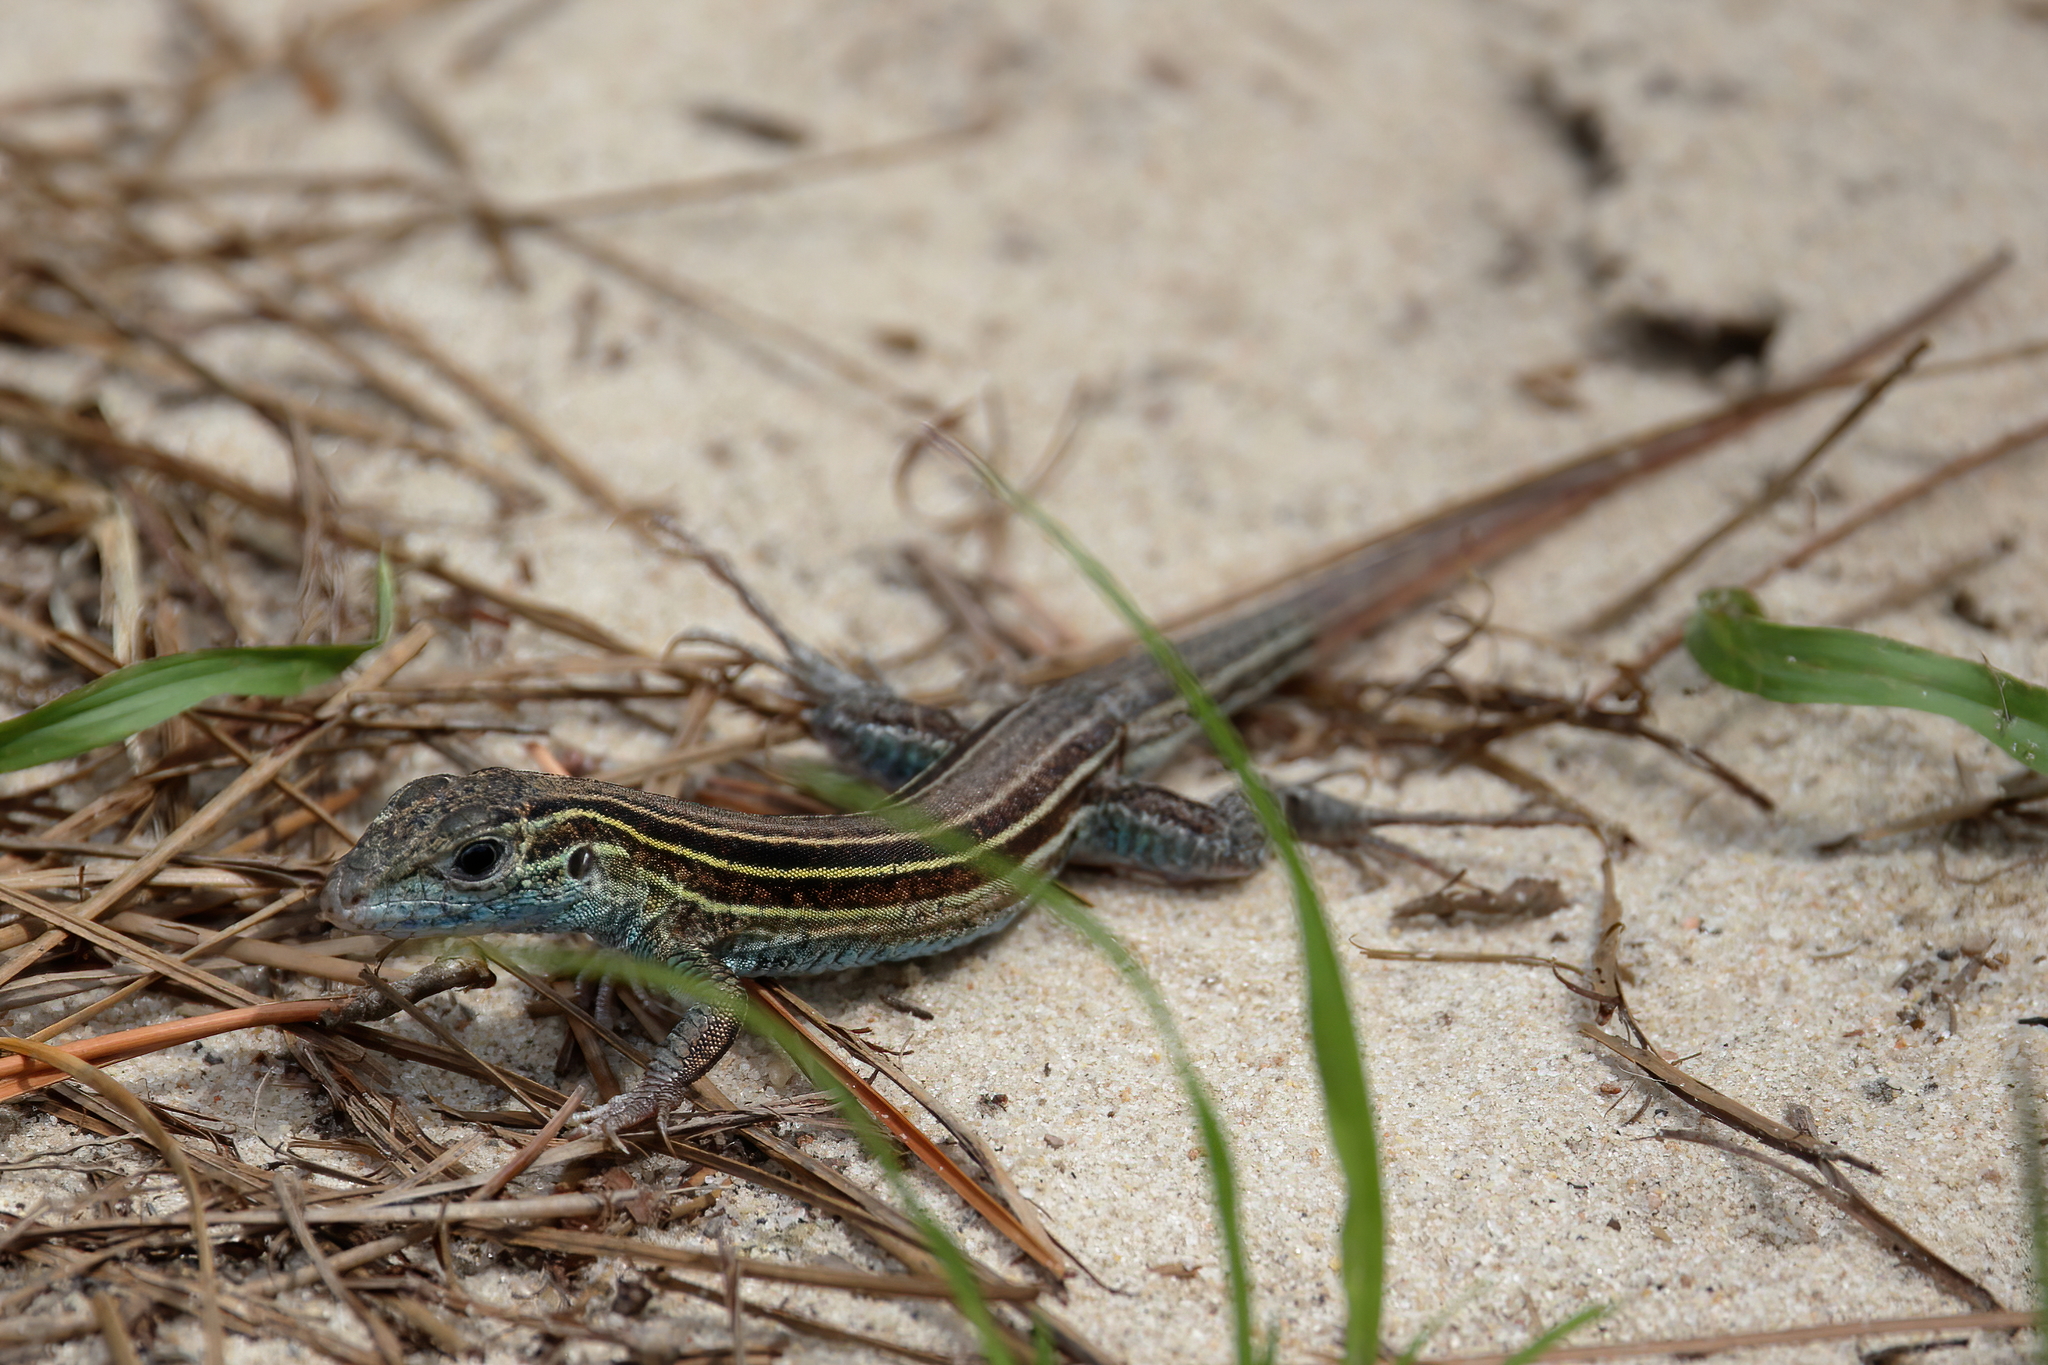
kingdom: Animalia
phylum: Chordata
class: Squamata
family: Teiidae
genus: Aspidoscelis
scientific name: Aspidoscelis sexlineatus
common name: Six-lined racerunner
